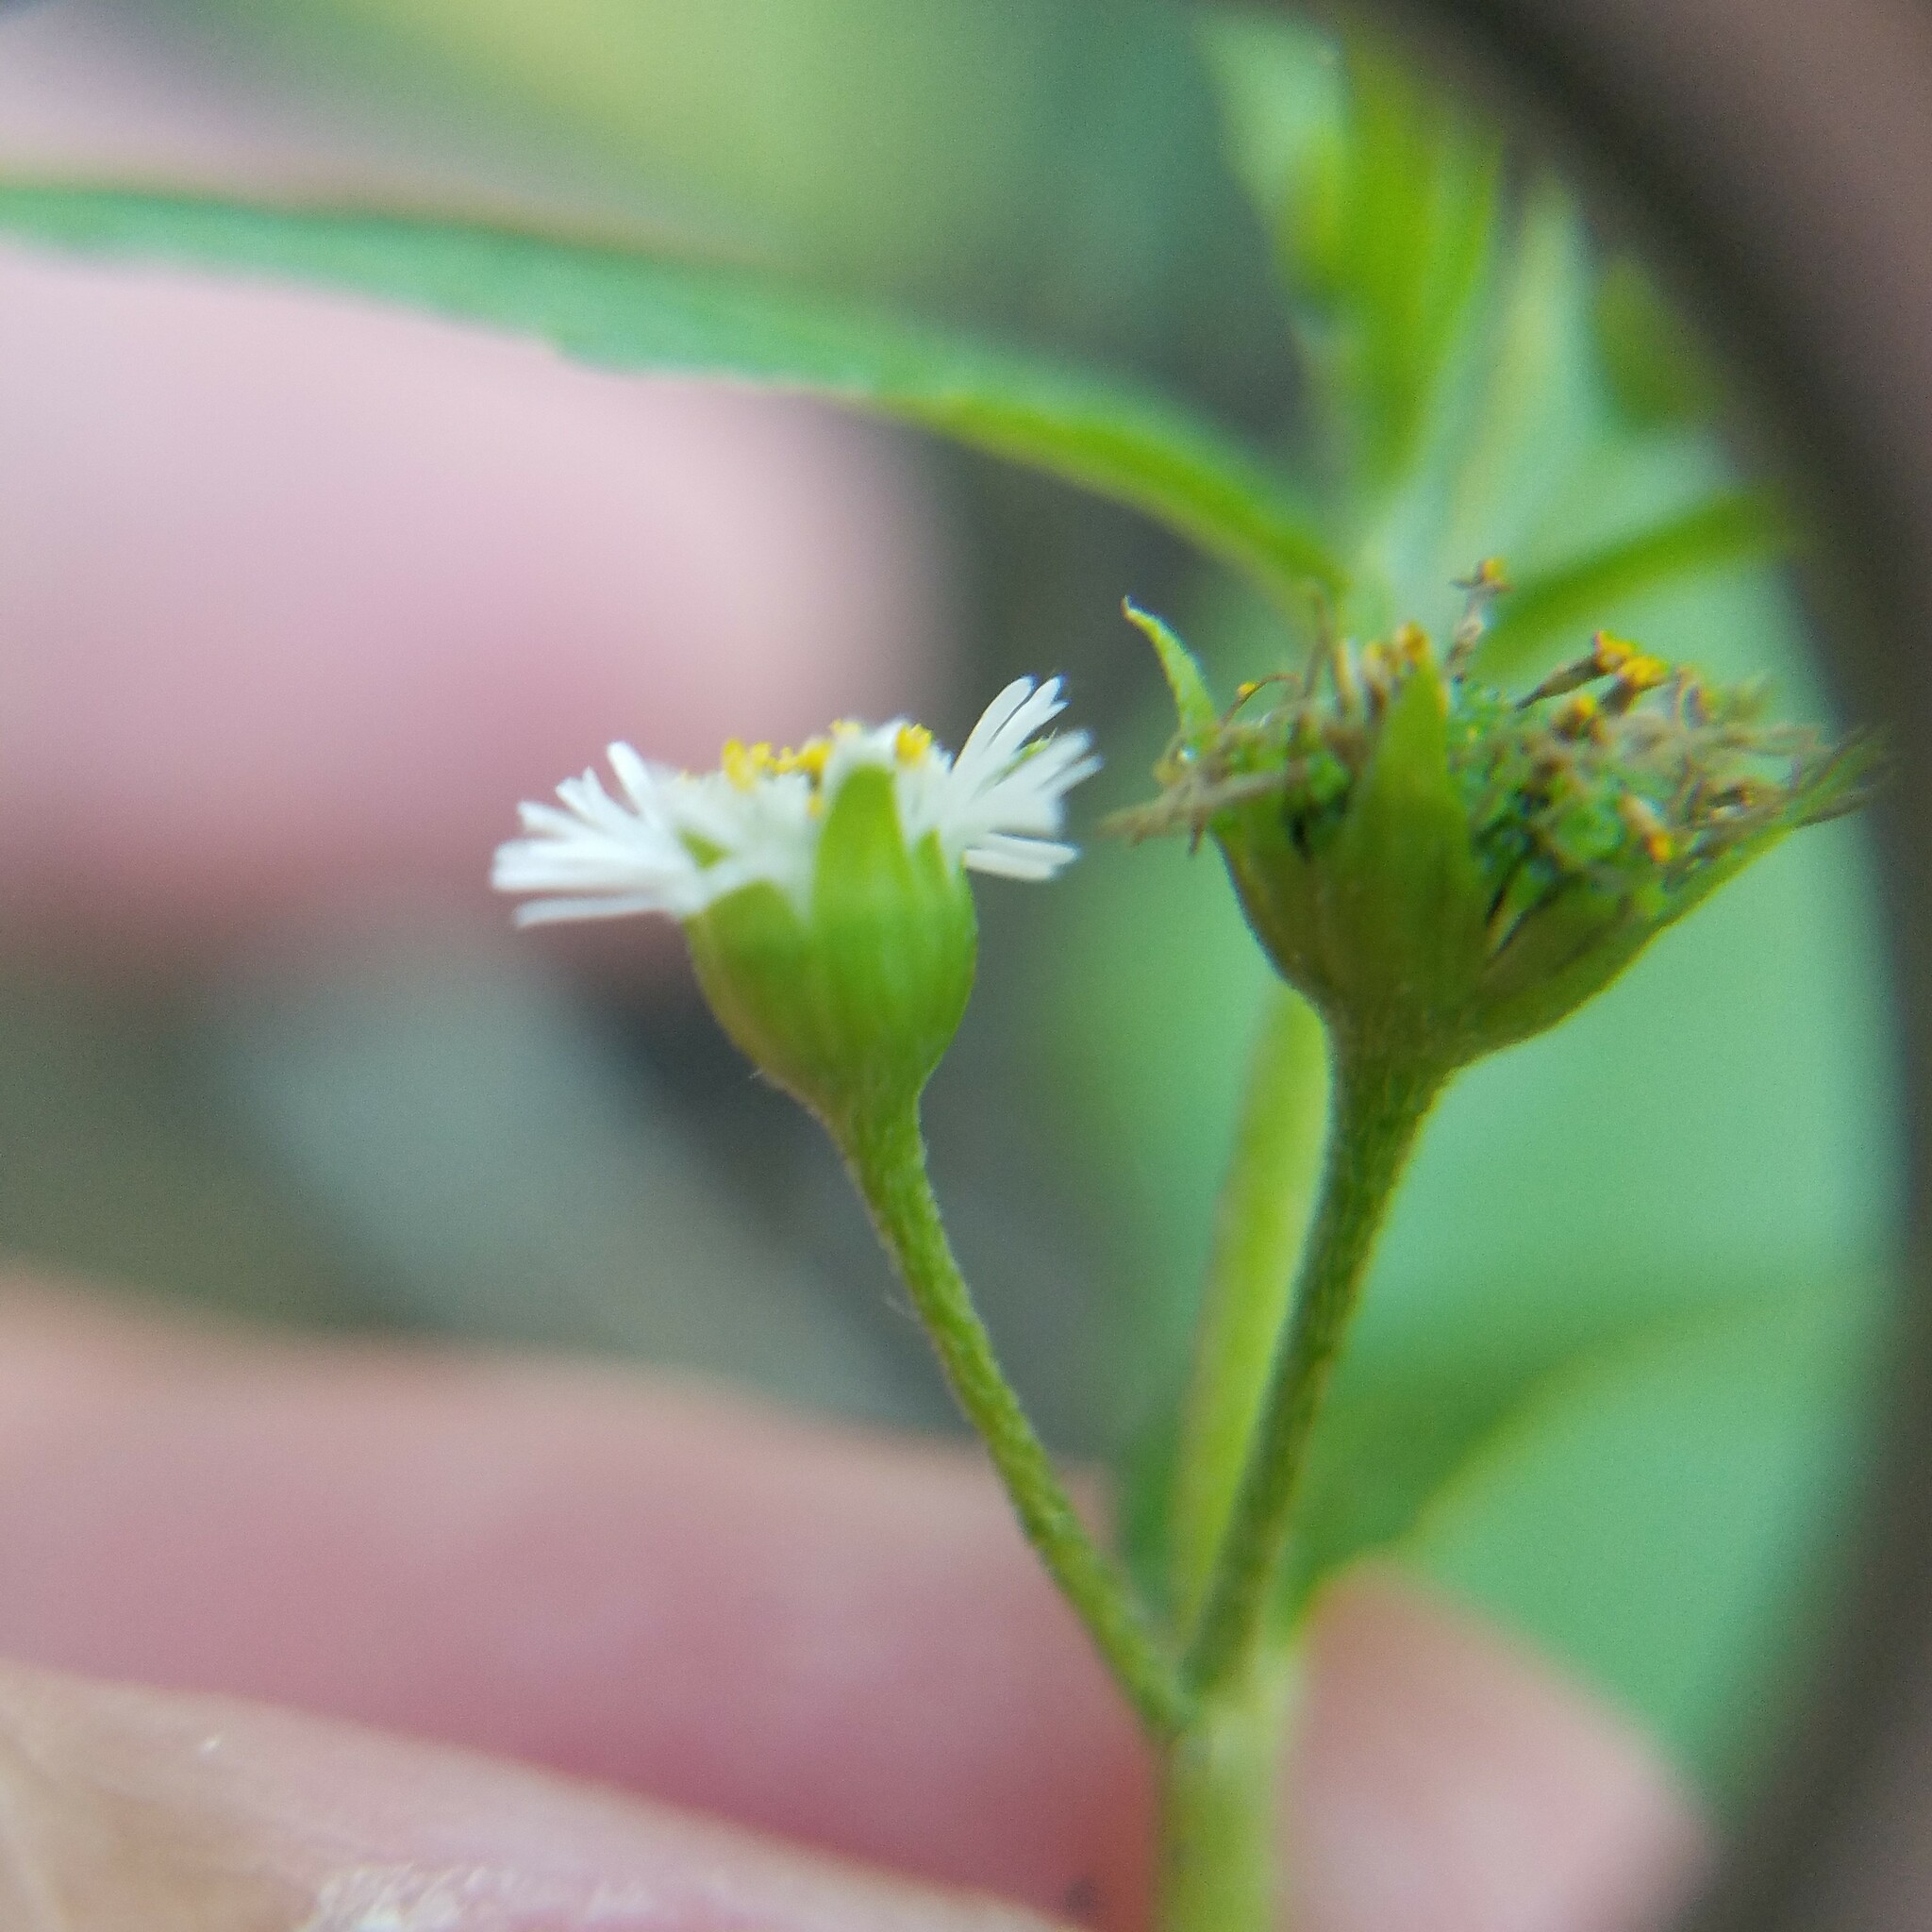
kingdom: Plantae
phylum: Tracheophyta
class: Magnoliopsida
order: Asterales
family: Asteraceae
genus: Eclipta
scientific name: Eclipta prostrata
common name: False daisy
